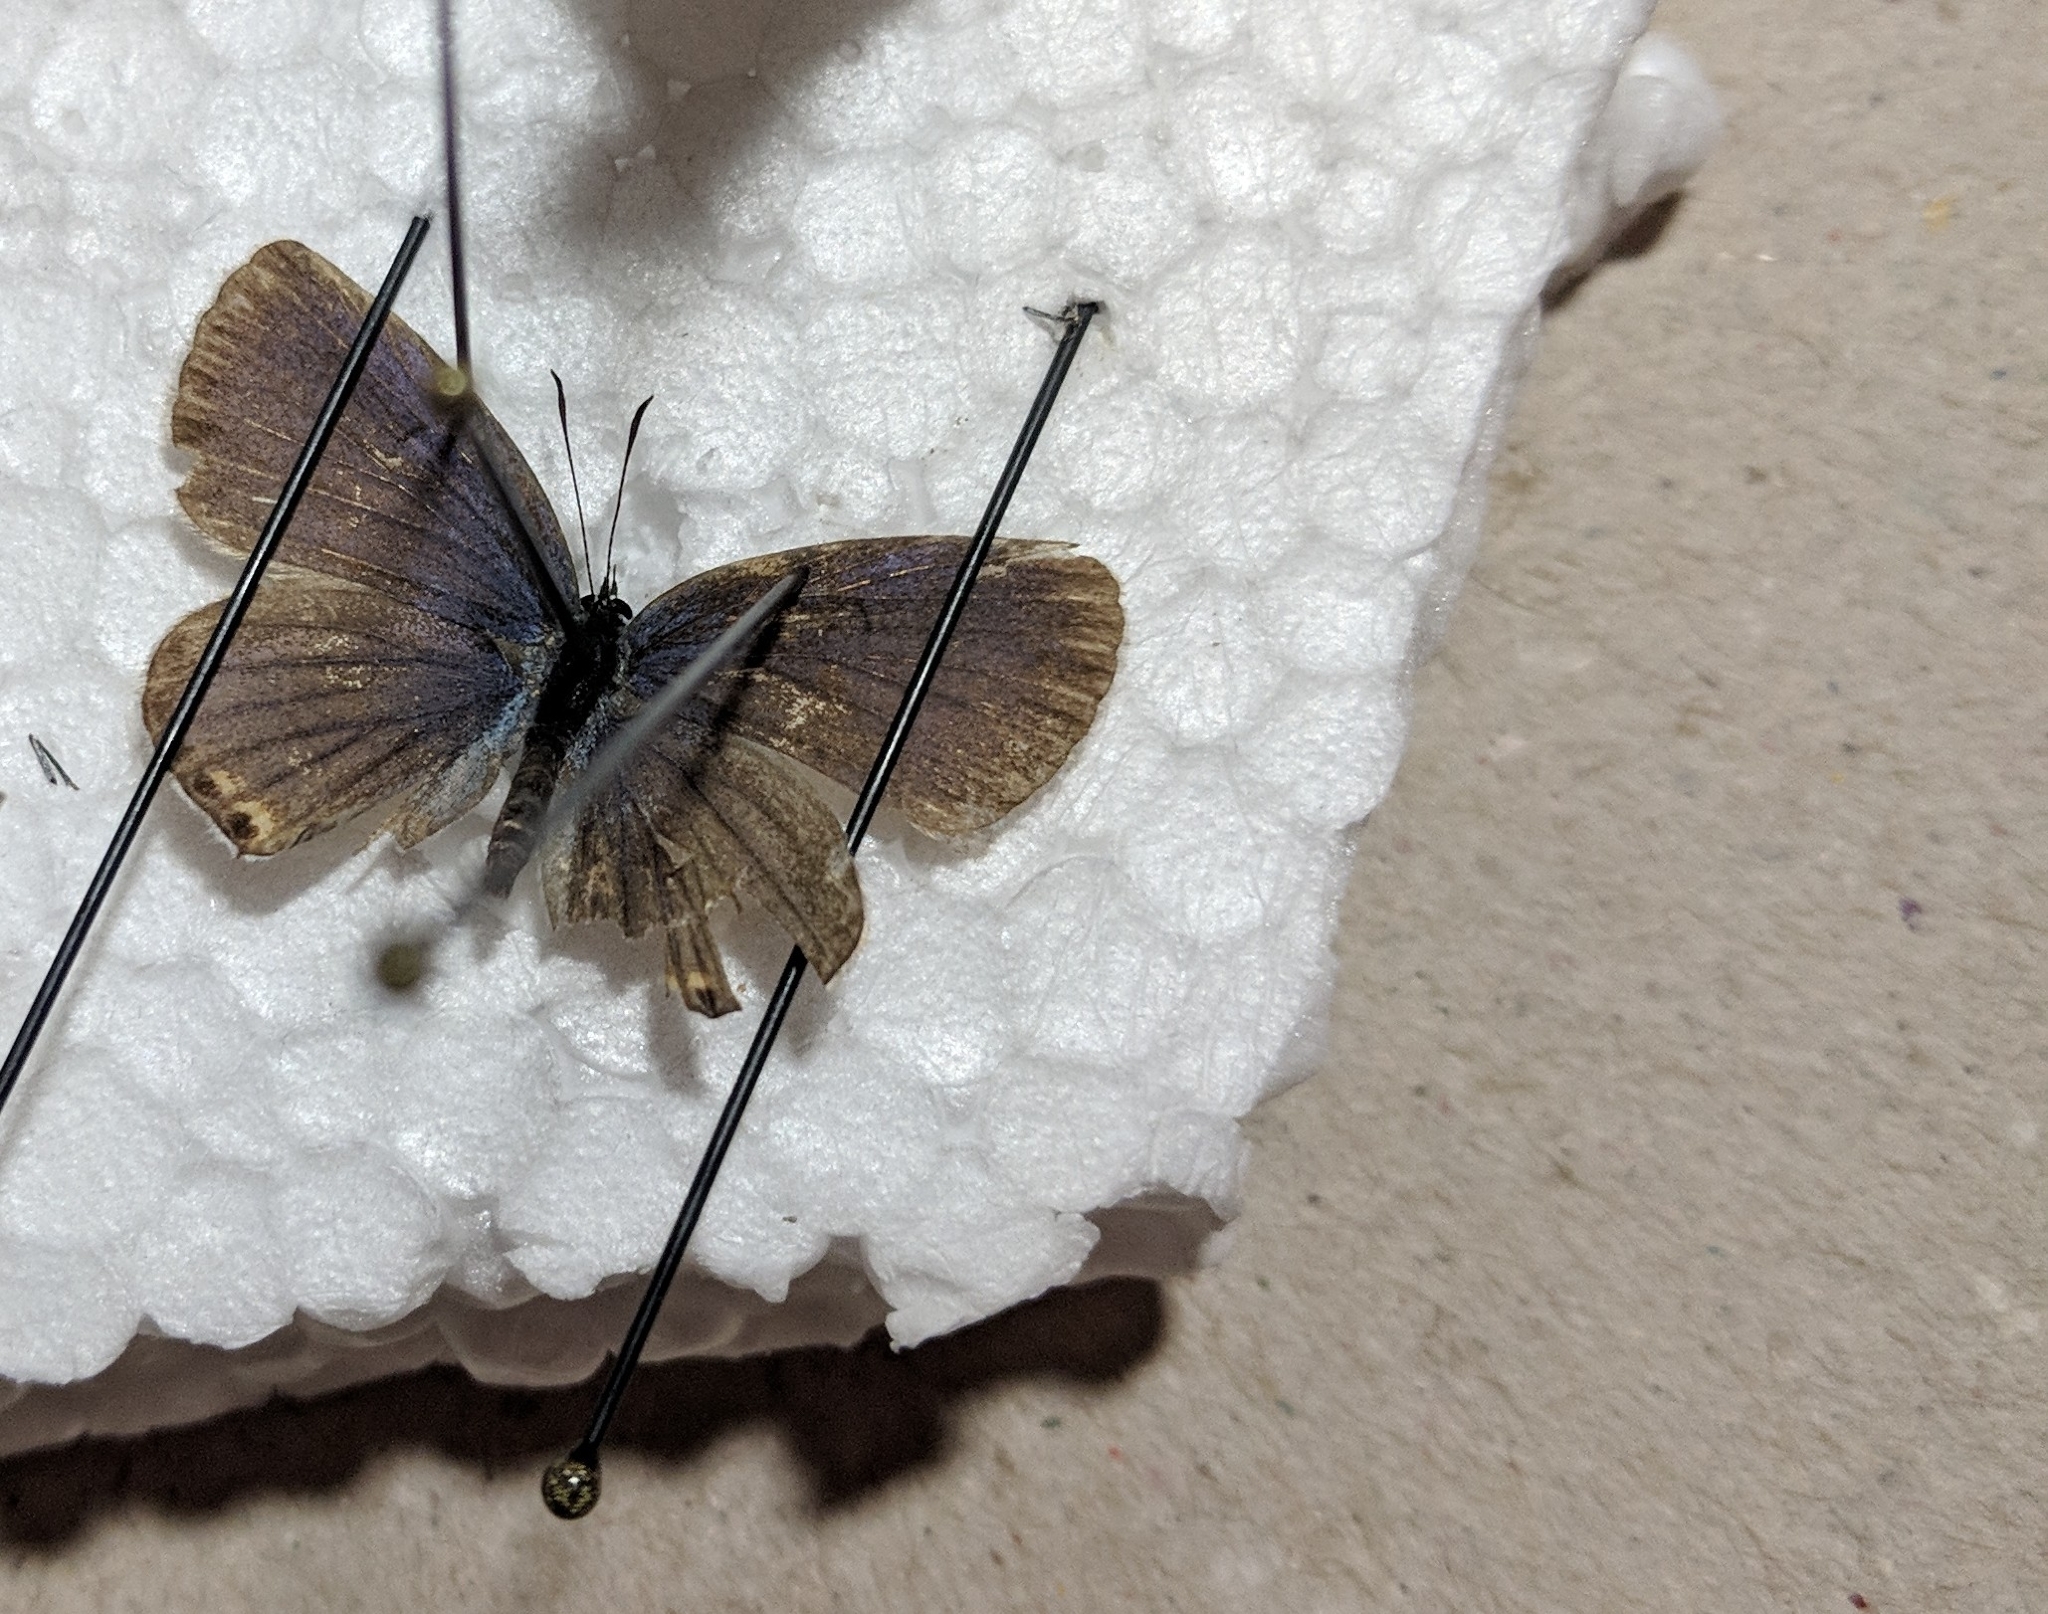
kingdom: Animalia
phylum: Arthropoda
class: Insecta
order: Lepidoptera
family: Lycaenidae
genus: Elkalyce
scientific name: Elkalyce comyntas
